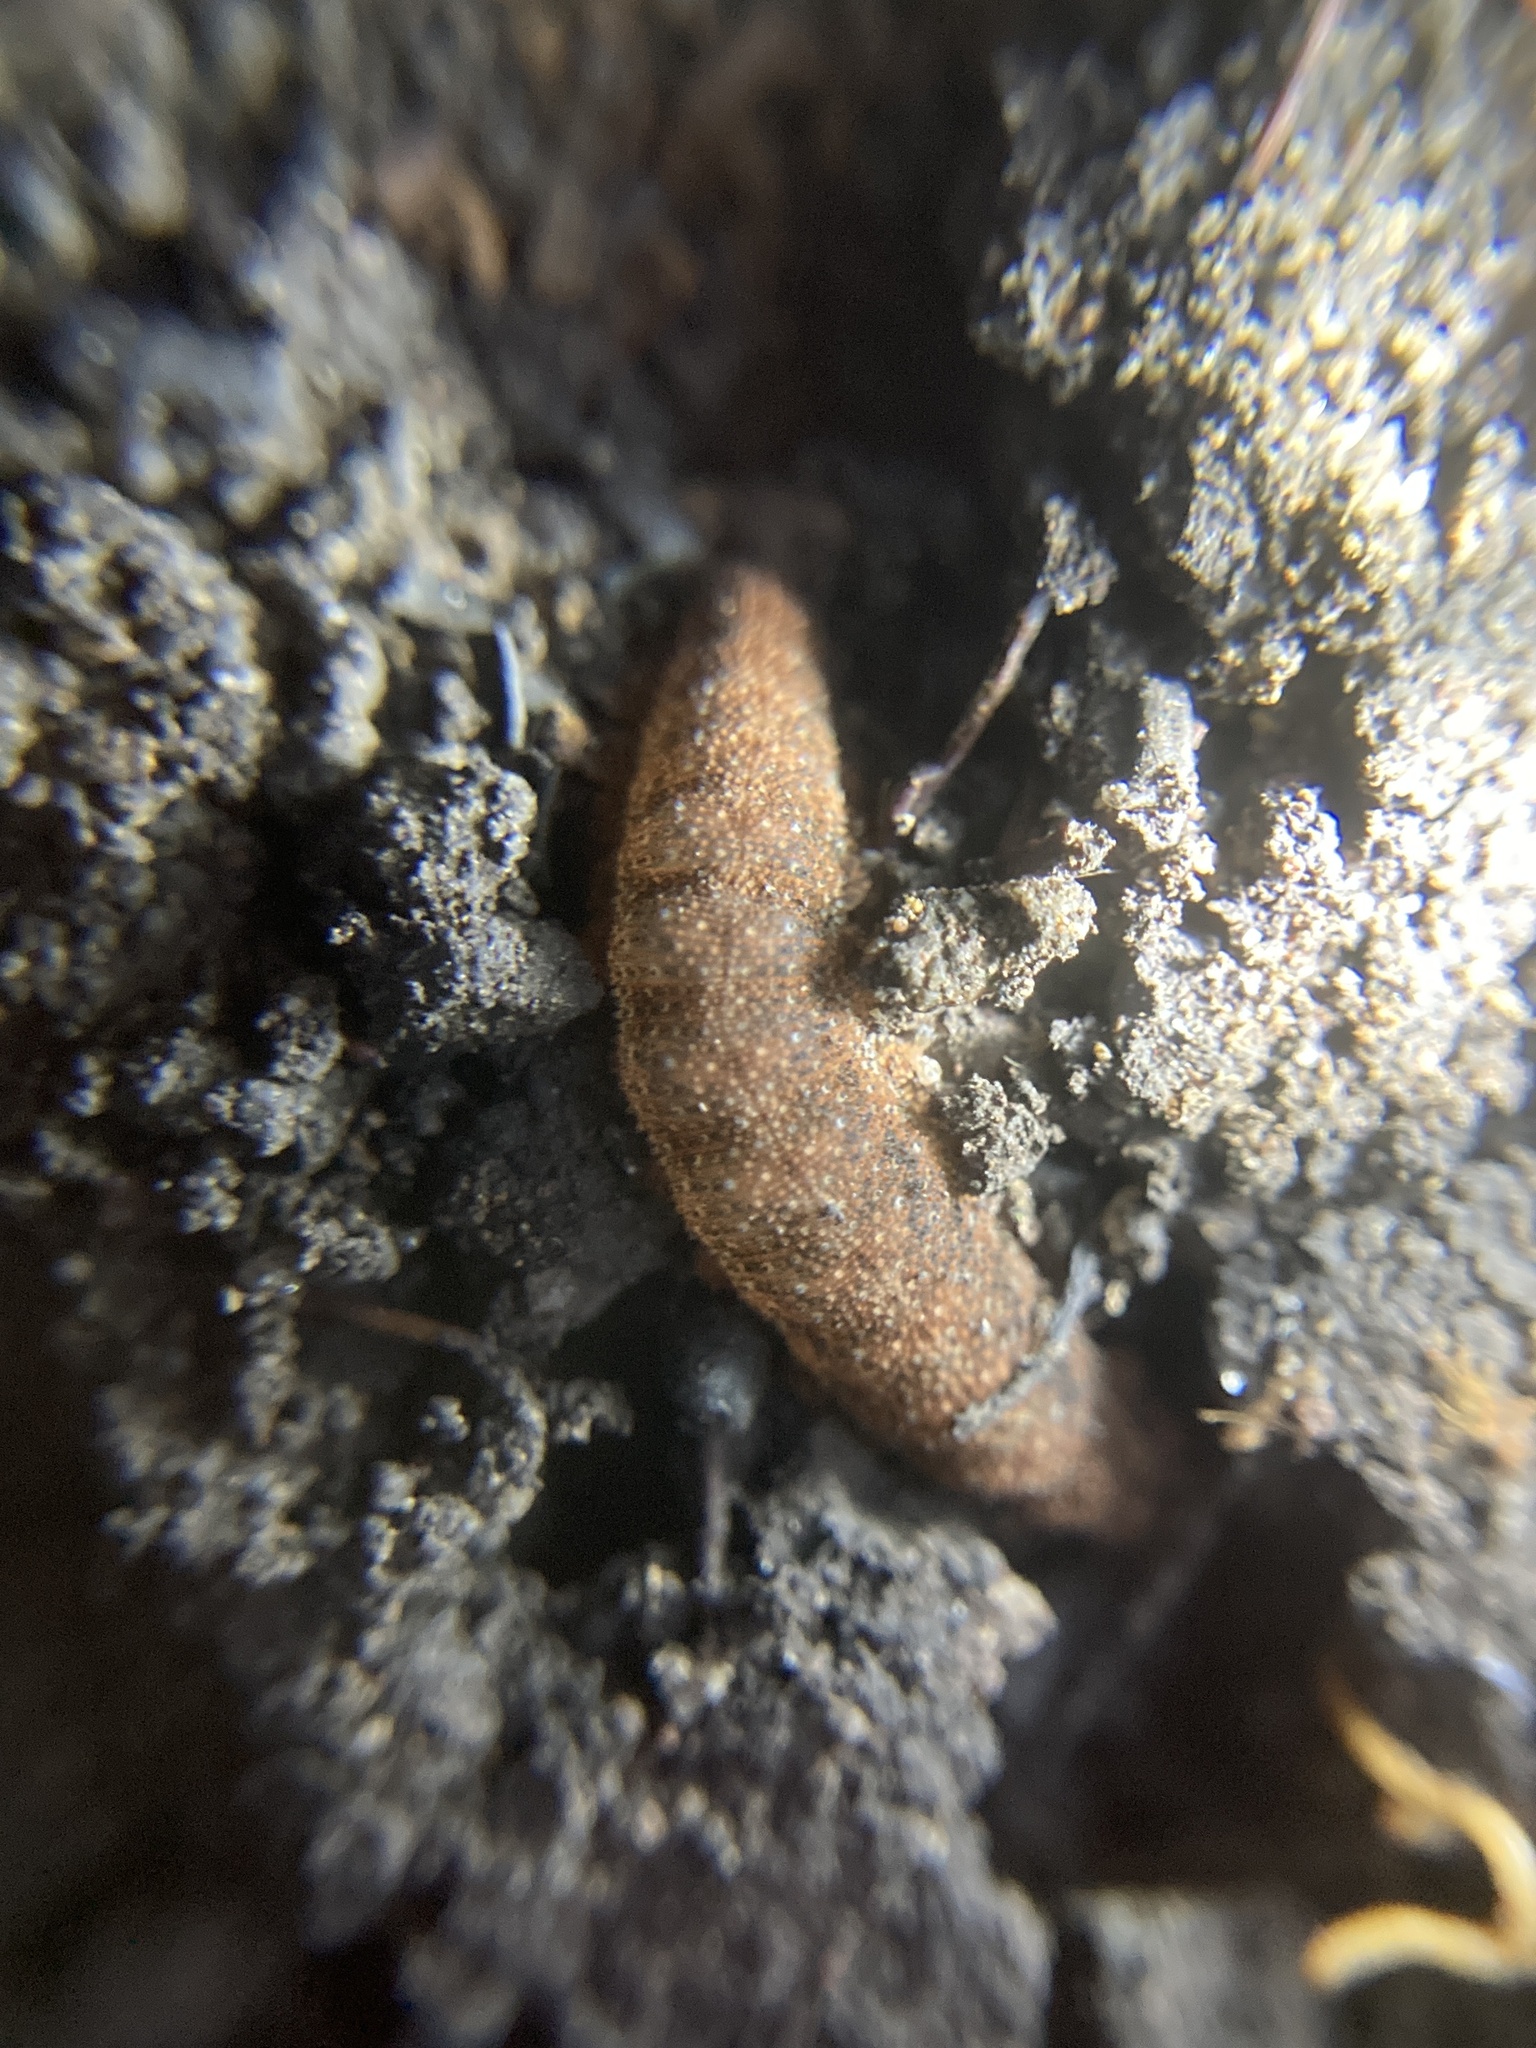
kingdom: Animalia
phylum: Onychophora
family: Peripatopsidae
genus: Anoplokaros
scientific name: Anoplokaros keerensis
